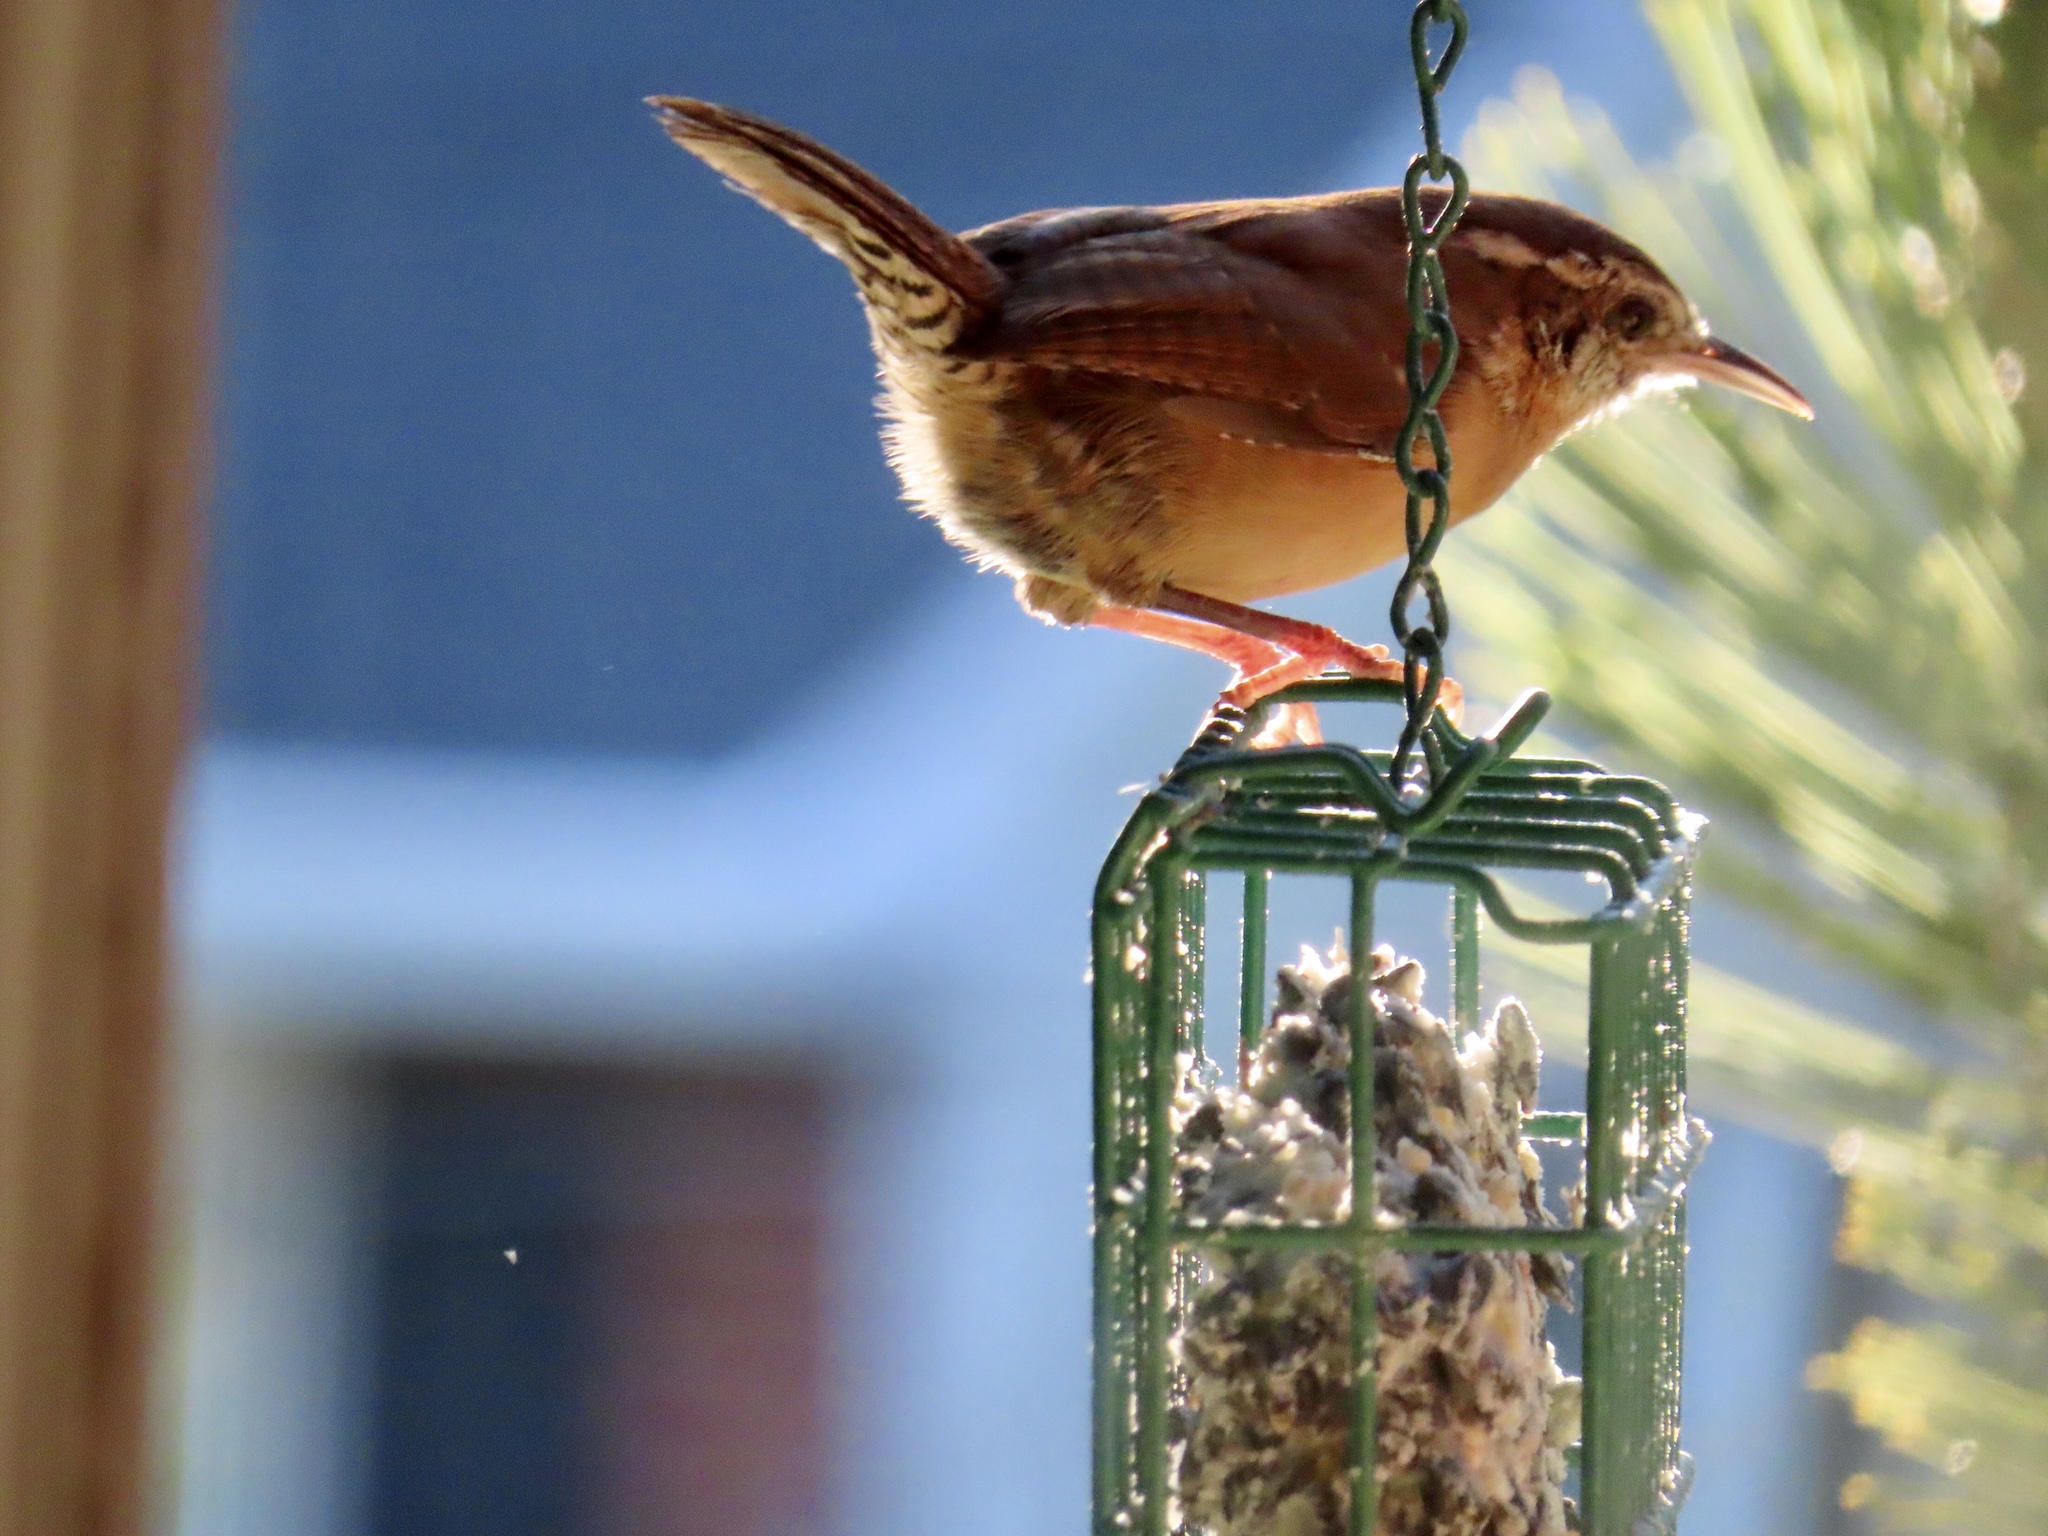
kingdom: Animalia
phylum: Chordata
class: Aves
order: Passeriformes
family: Troglodytidae
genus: Thryothorus
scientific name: Thryothorus ludovicianus
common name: Carolina wren
